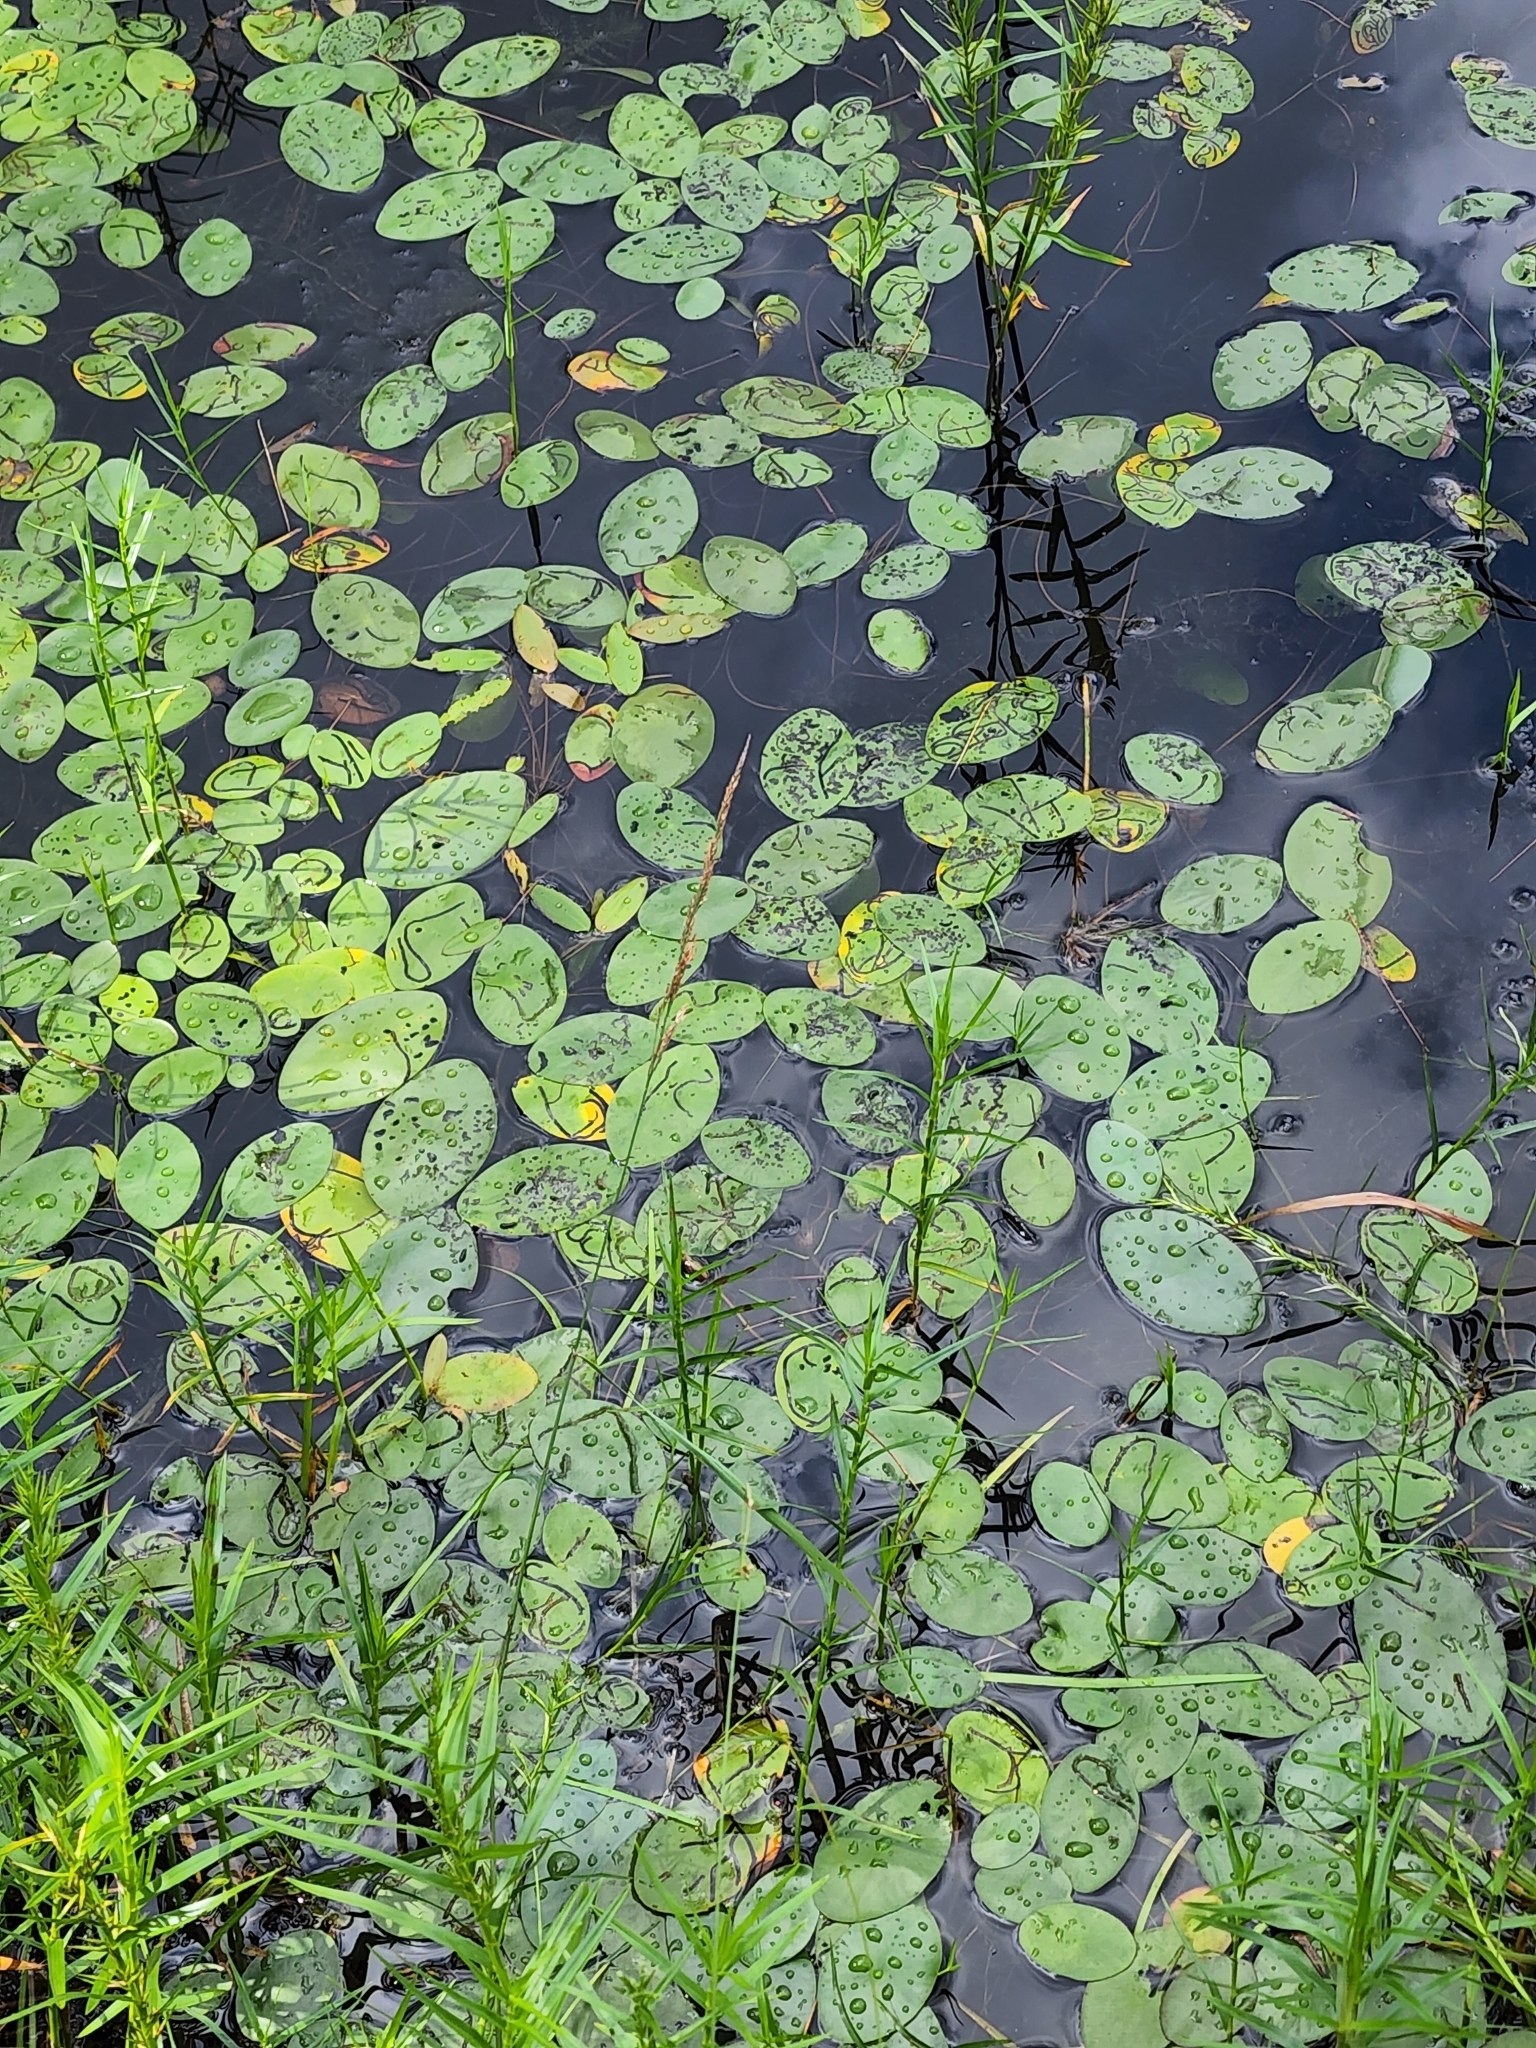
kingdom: Plantae
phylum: Tracheophyta
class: Magnoliopsida
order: Nymphaeales
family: Cabombaceae
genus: Brasenia
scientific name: Brasenia schreberi
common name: Water-shield
